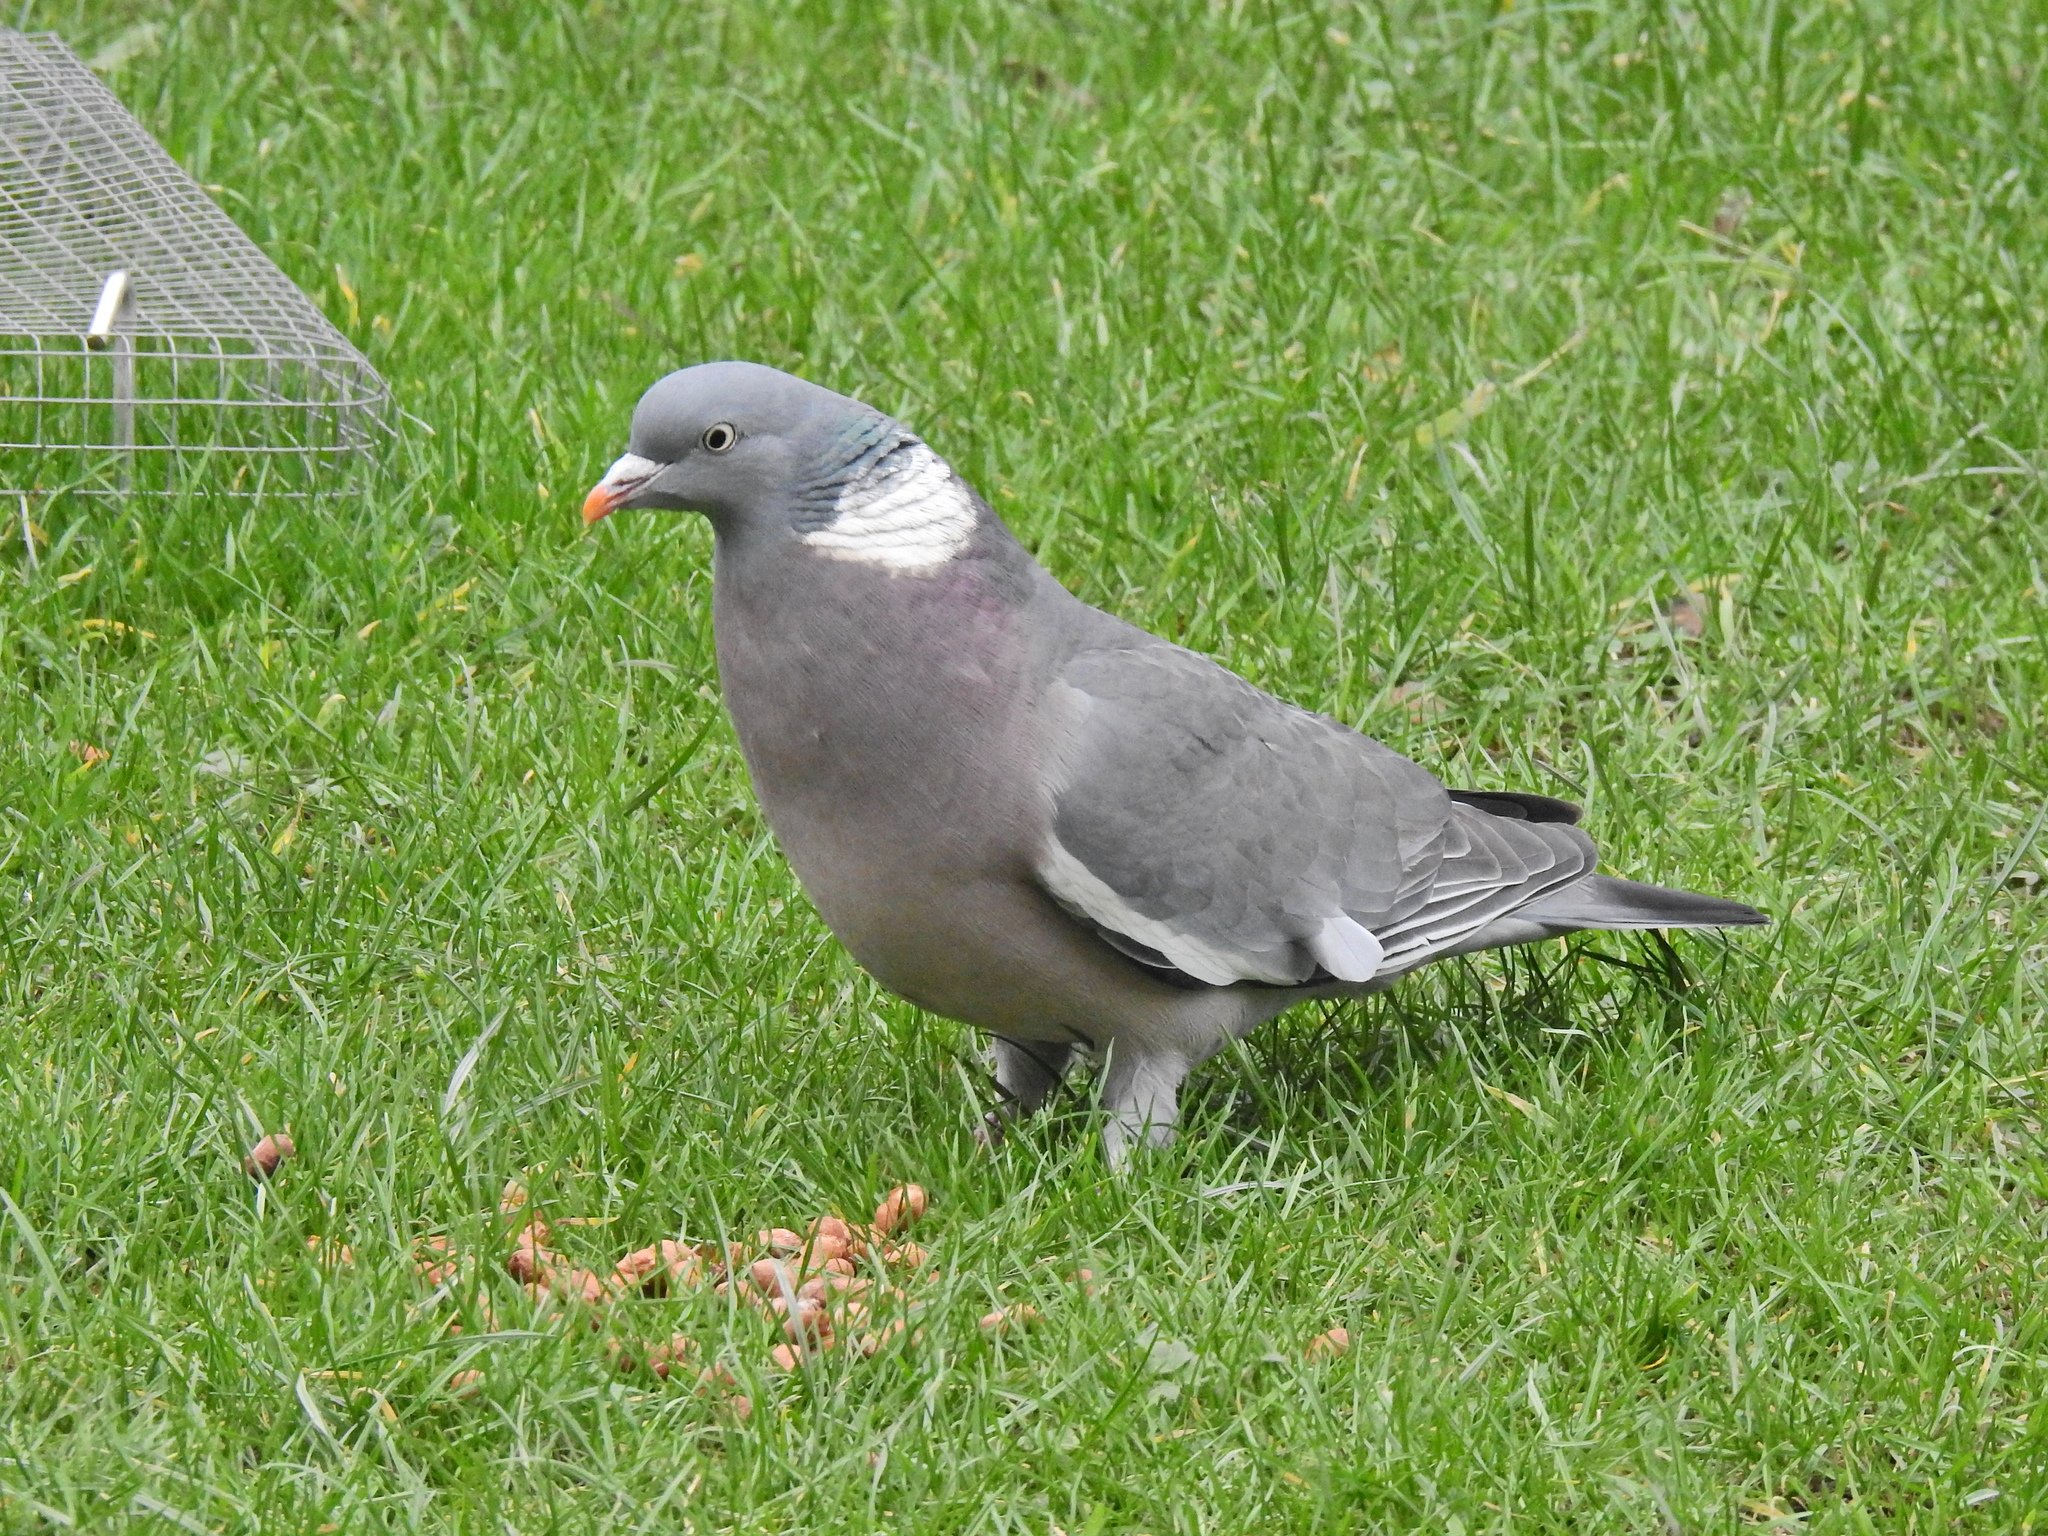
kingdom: Animalia
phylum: Chordata
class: Aves
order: Columbiformes
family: Columbidae
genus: Columba
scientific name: Columba palumbus
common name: Common wood pigeon
